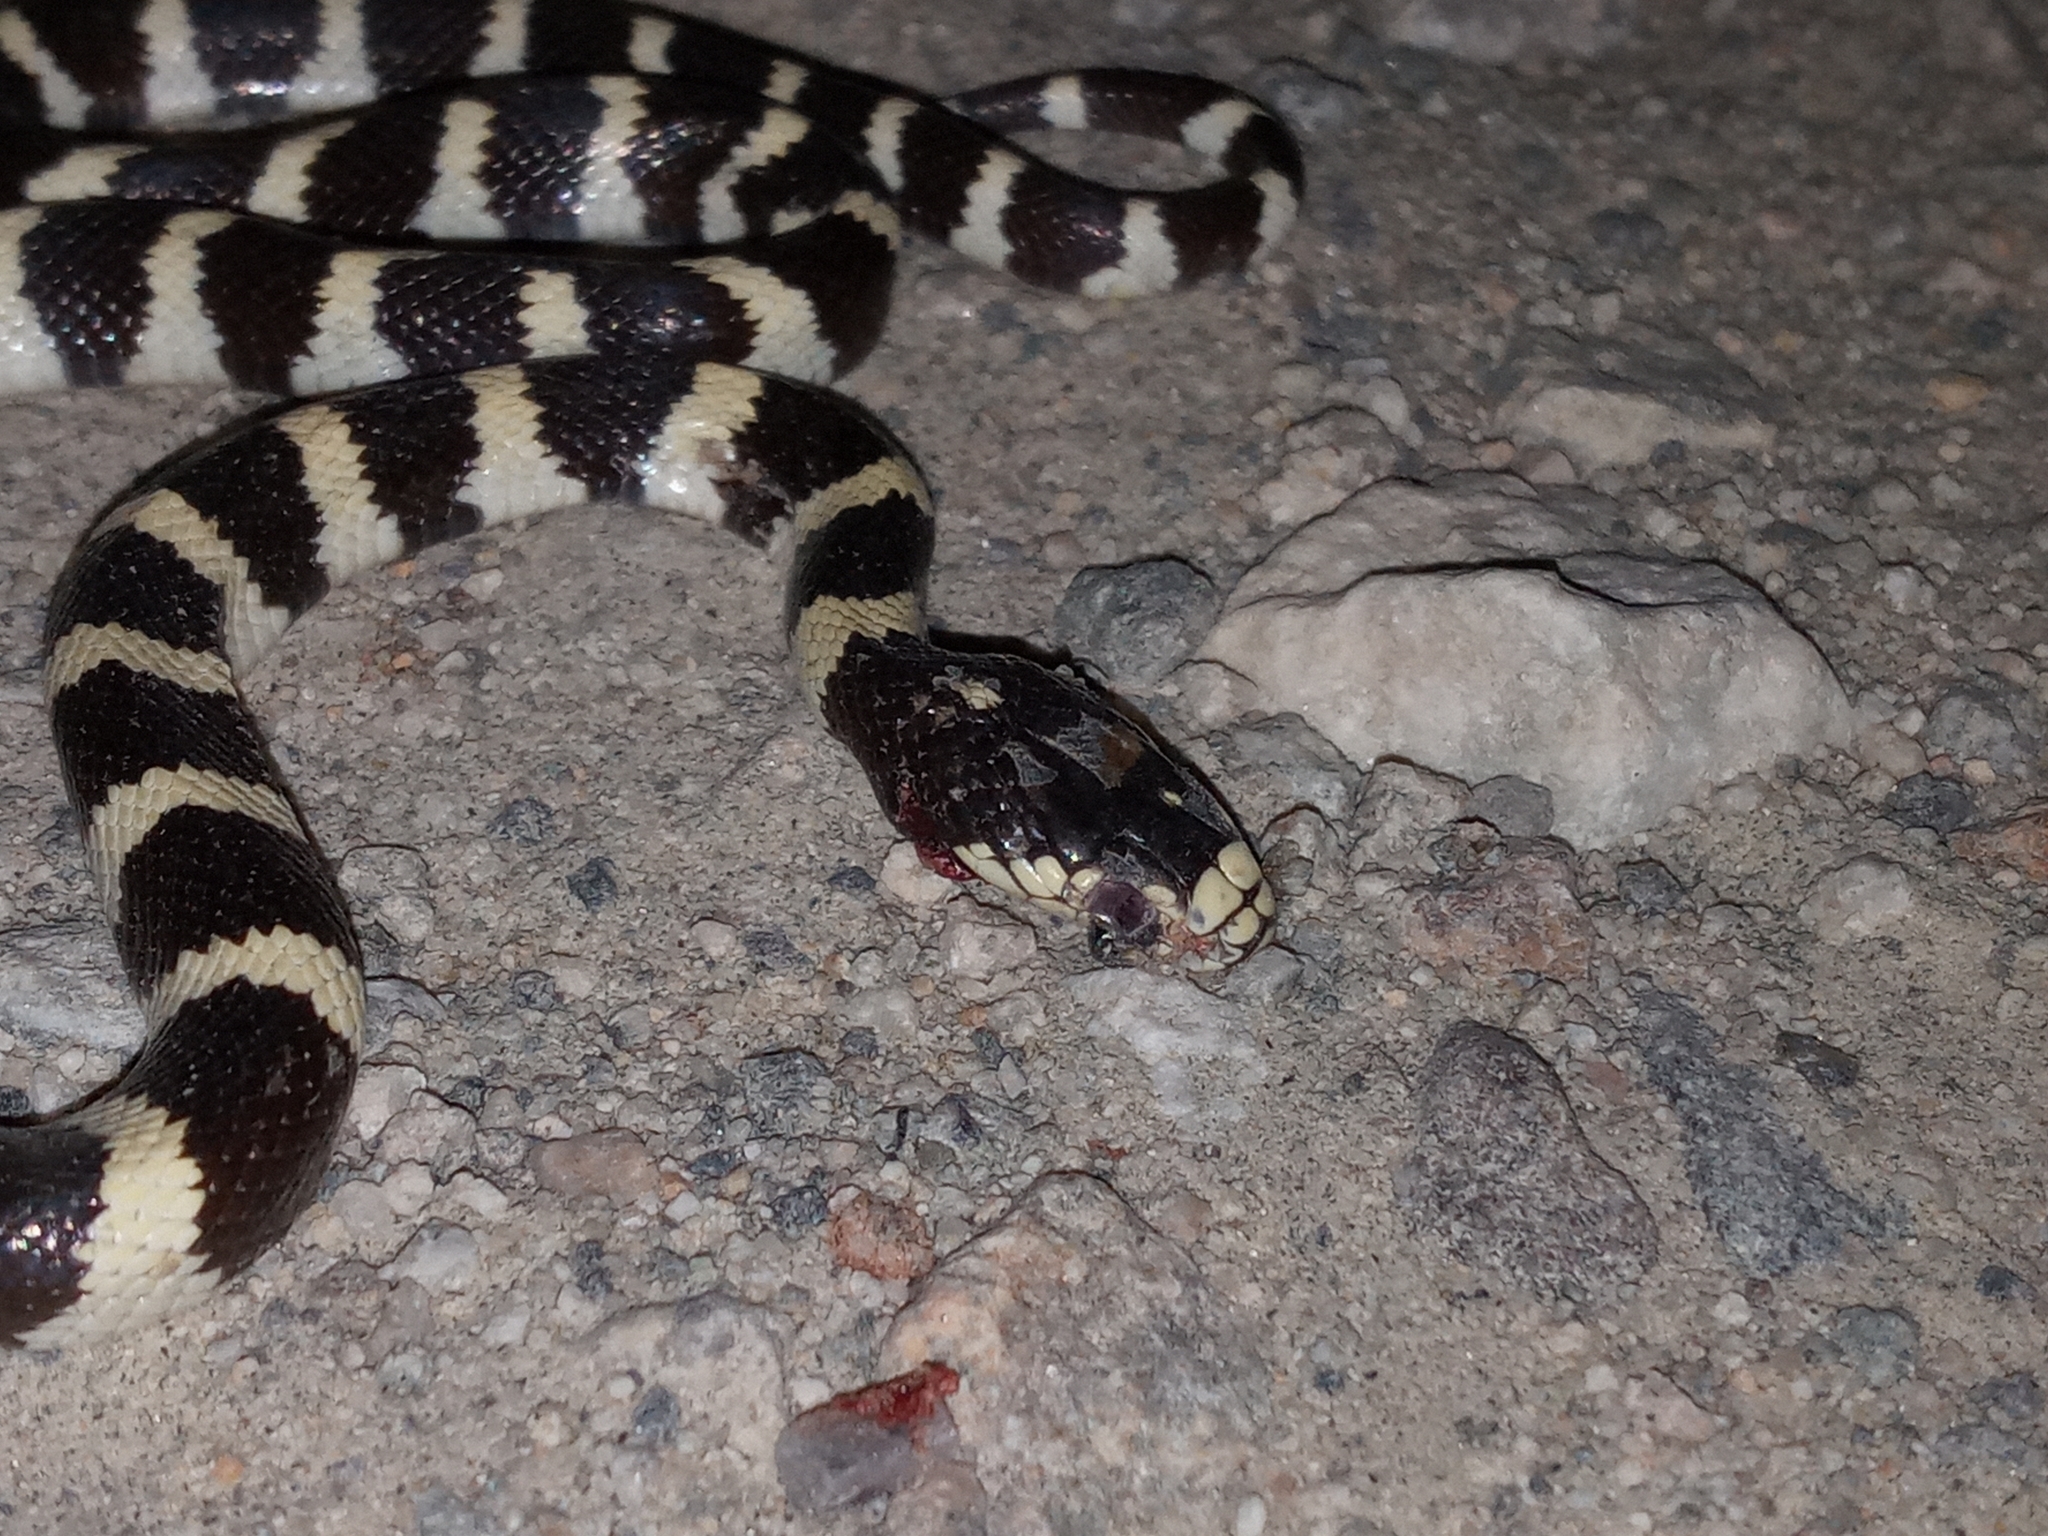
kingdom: Animalia
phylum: Chordata
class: Squamata
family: Colubridae
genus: Lampropeltis
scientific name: Lampropeltis californiae
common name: California kingsnake
